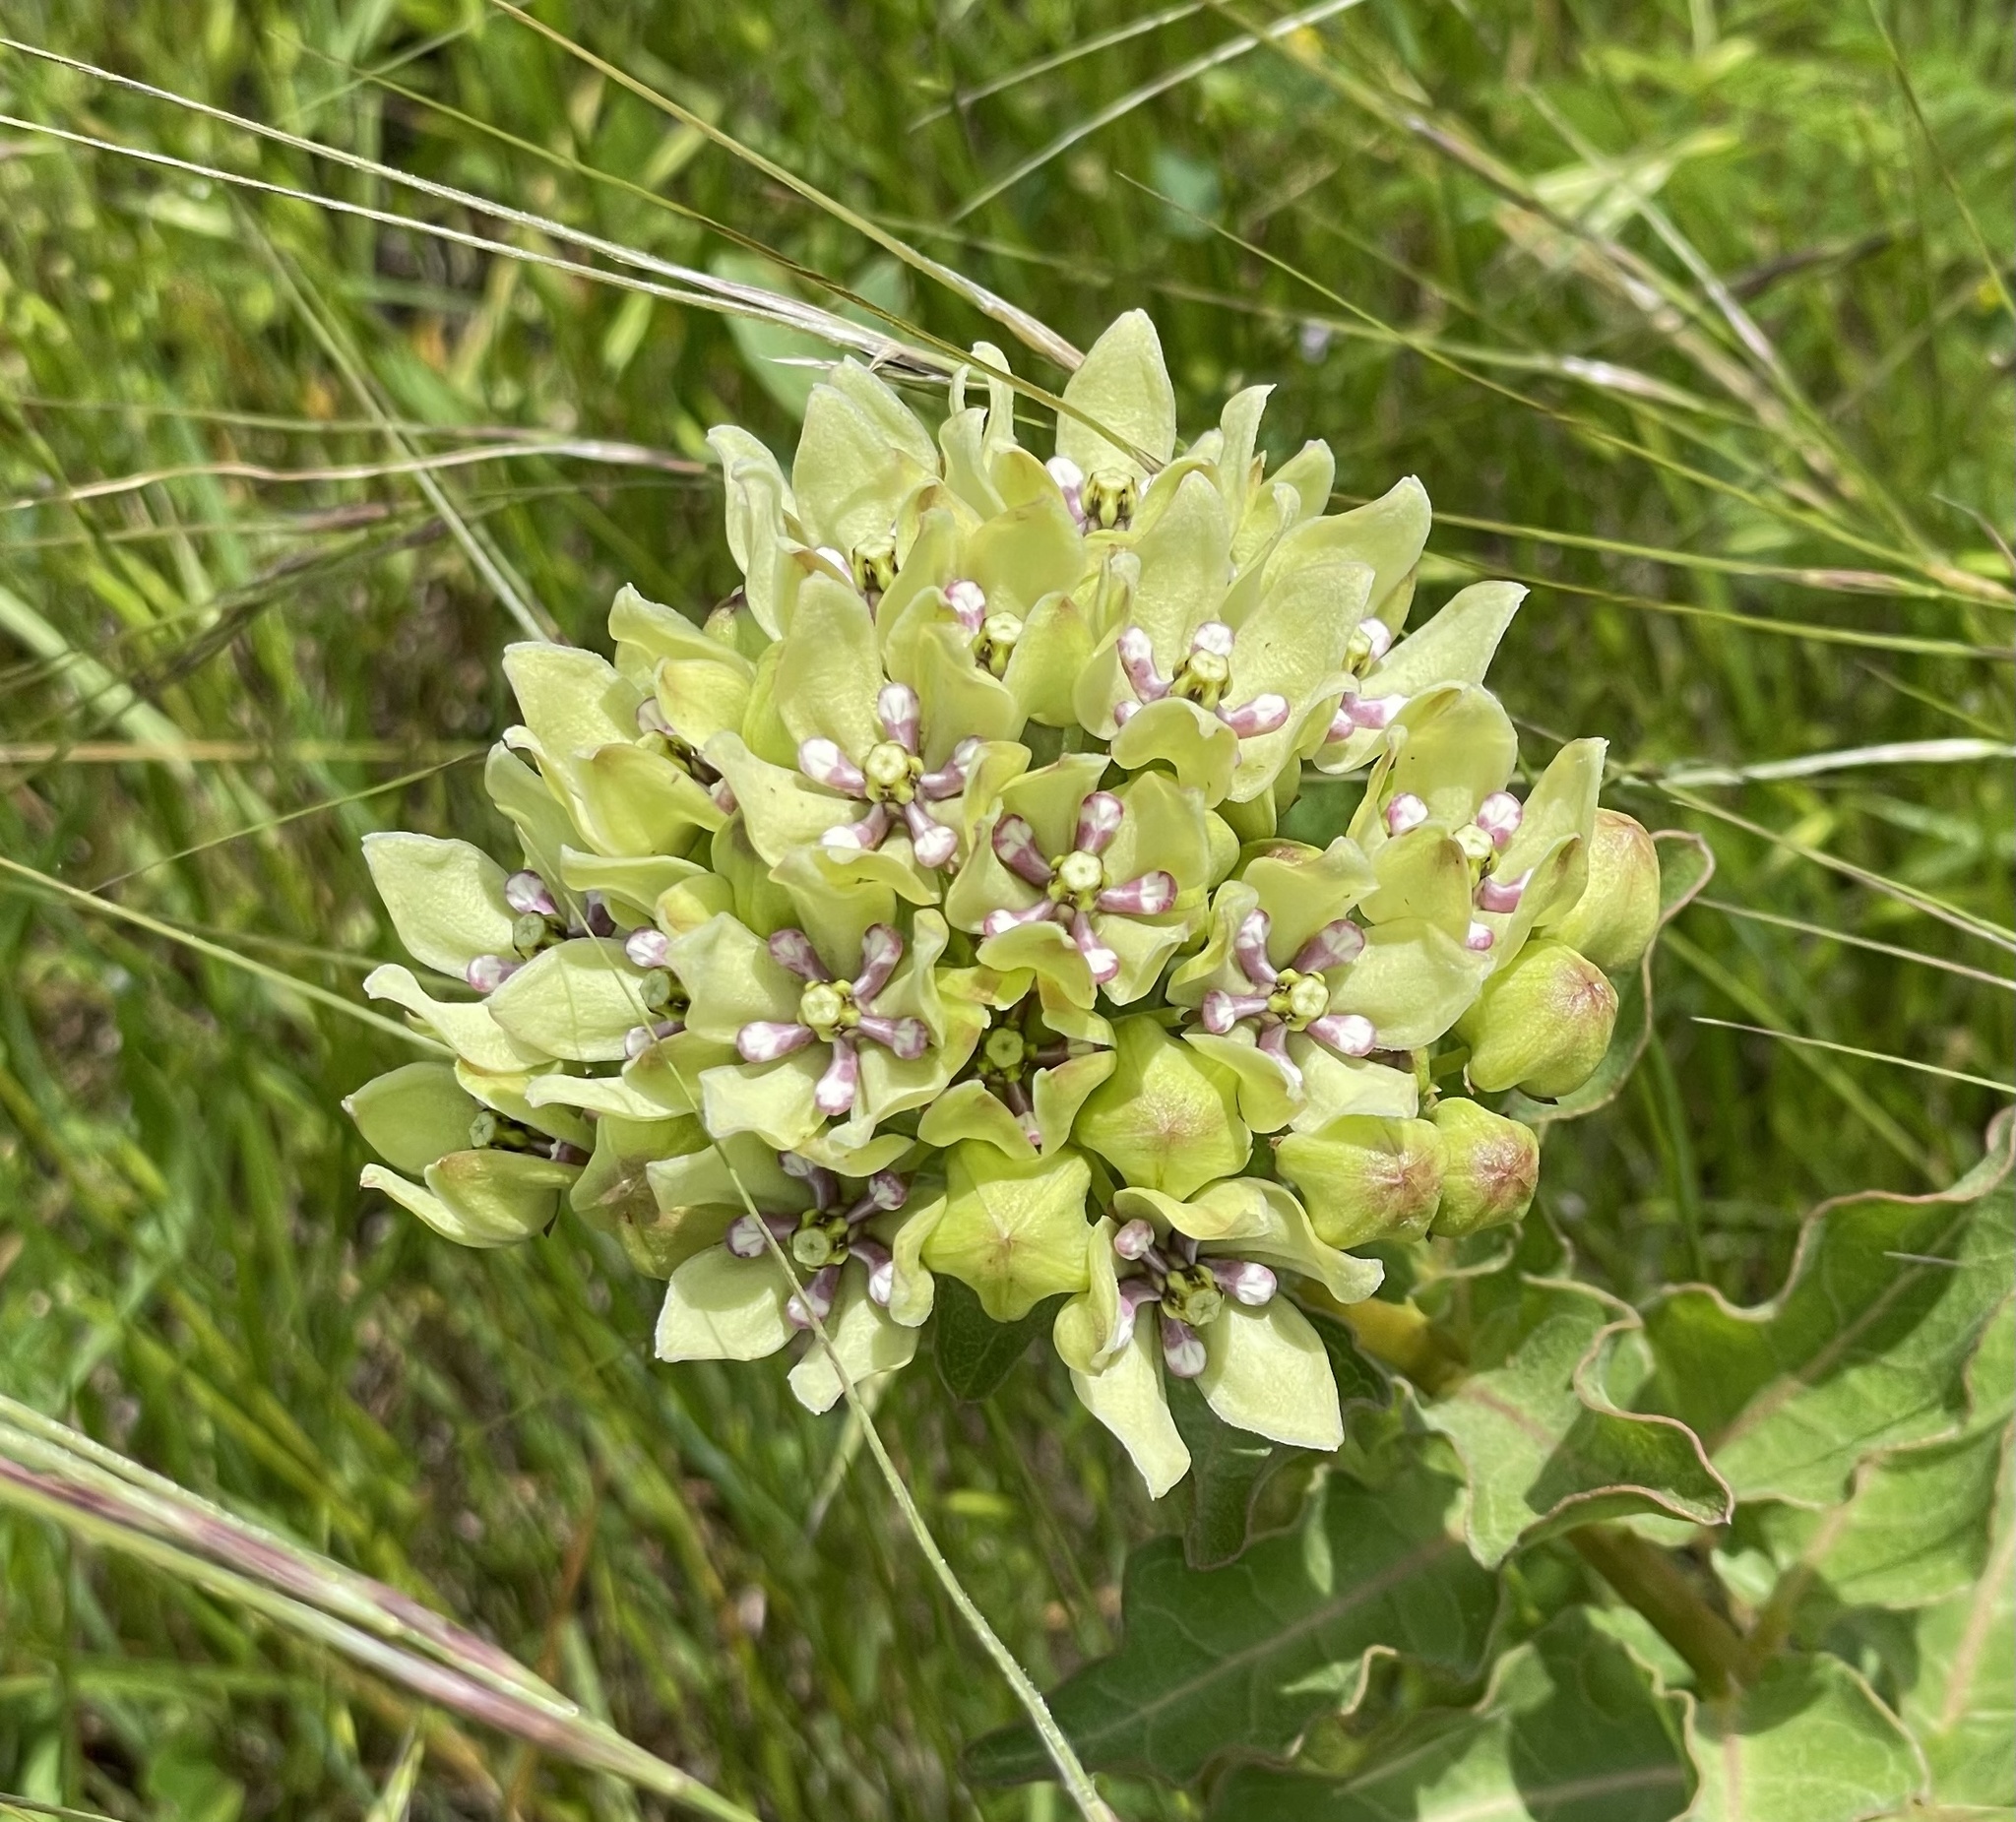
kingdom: Plantae
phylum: Tracheophyta
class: Magnoliopsida
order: Gentianales
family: Apocynaceae
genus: Asclepias
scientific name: Asclepias viridis
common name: Antelope-horns
